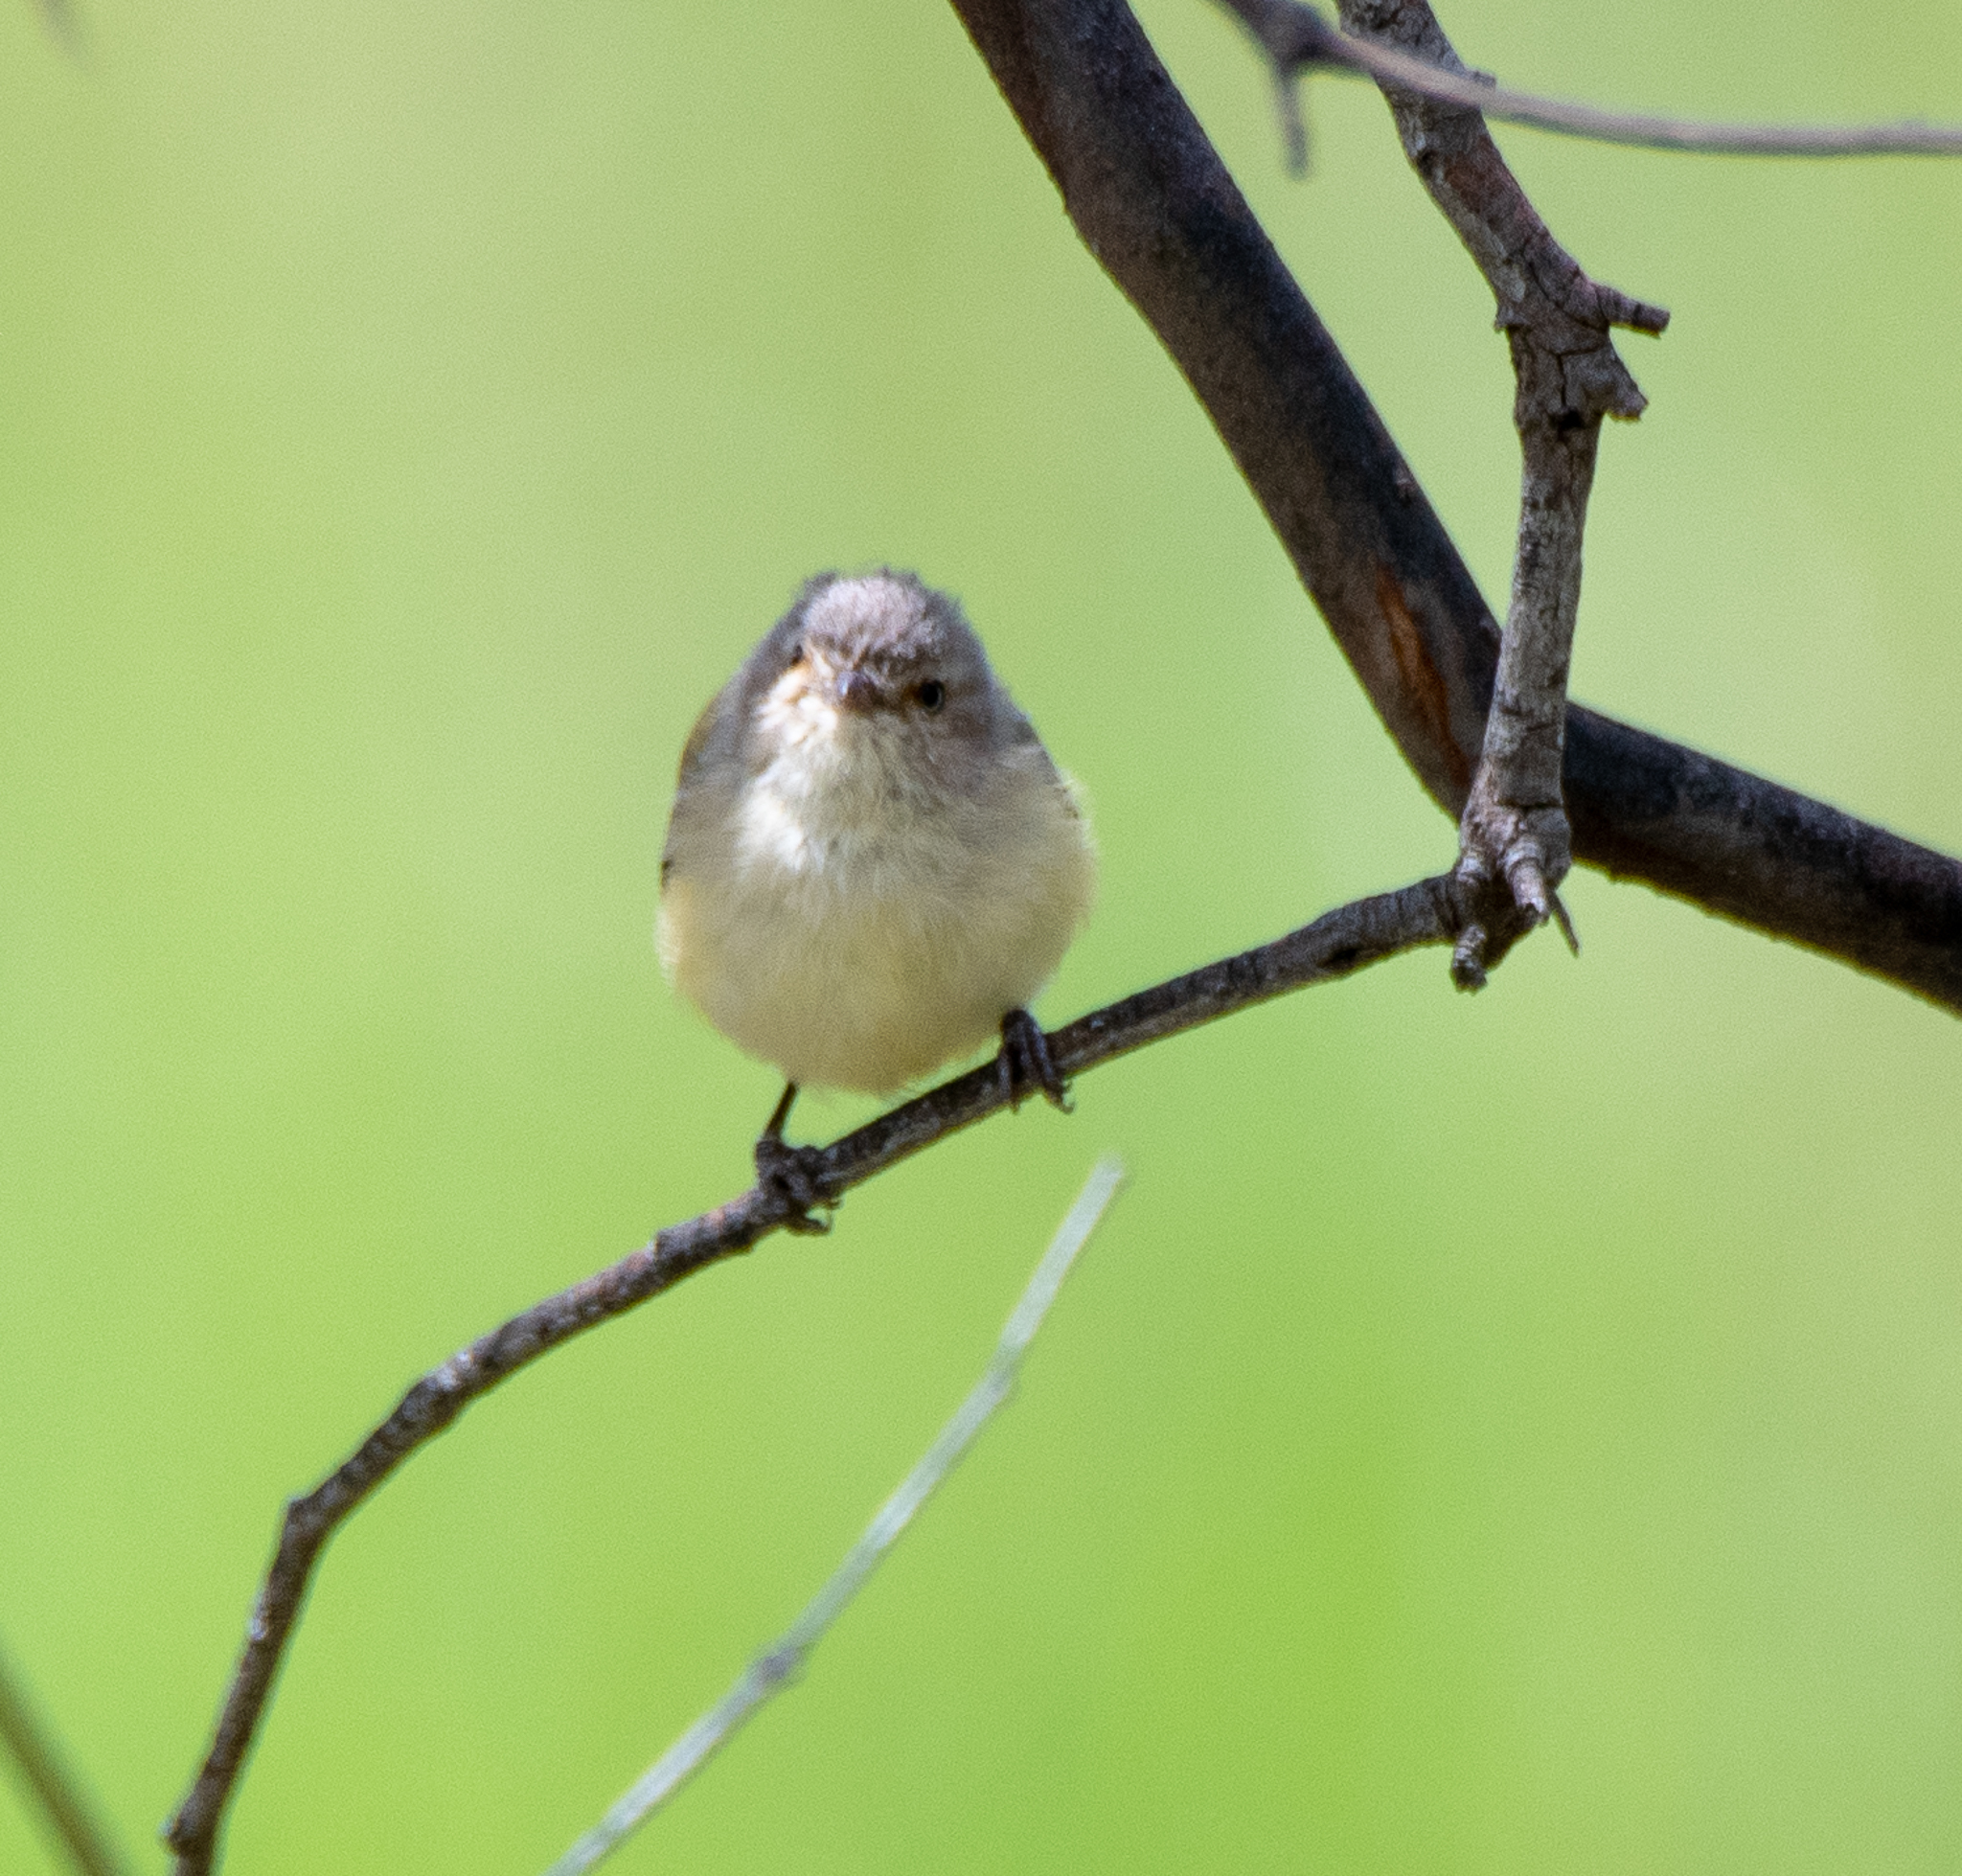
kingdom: Animalia
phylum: Chordata
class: Aves
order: Passeriformes
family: Acanthizidae
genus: Smicrornis
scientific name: Smicrornis brevirostris
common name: Weebill
